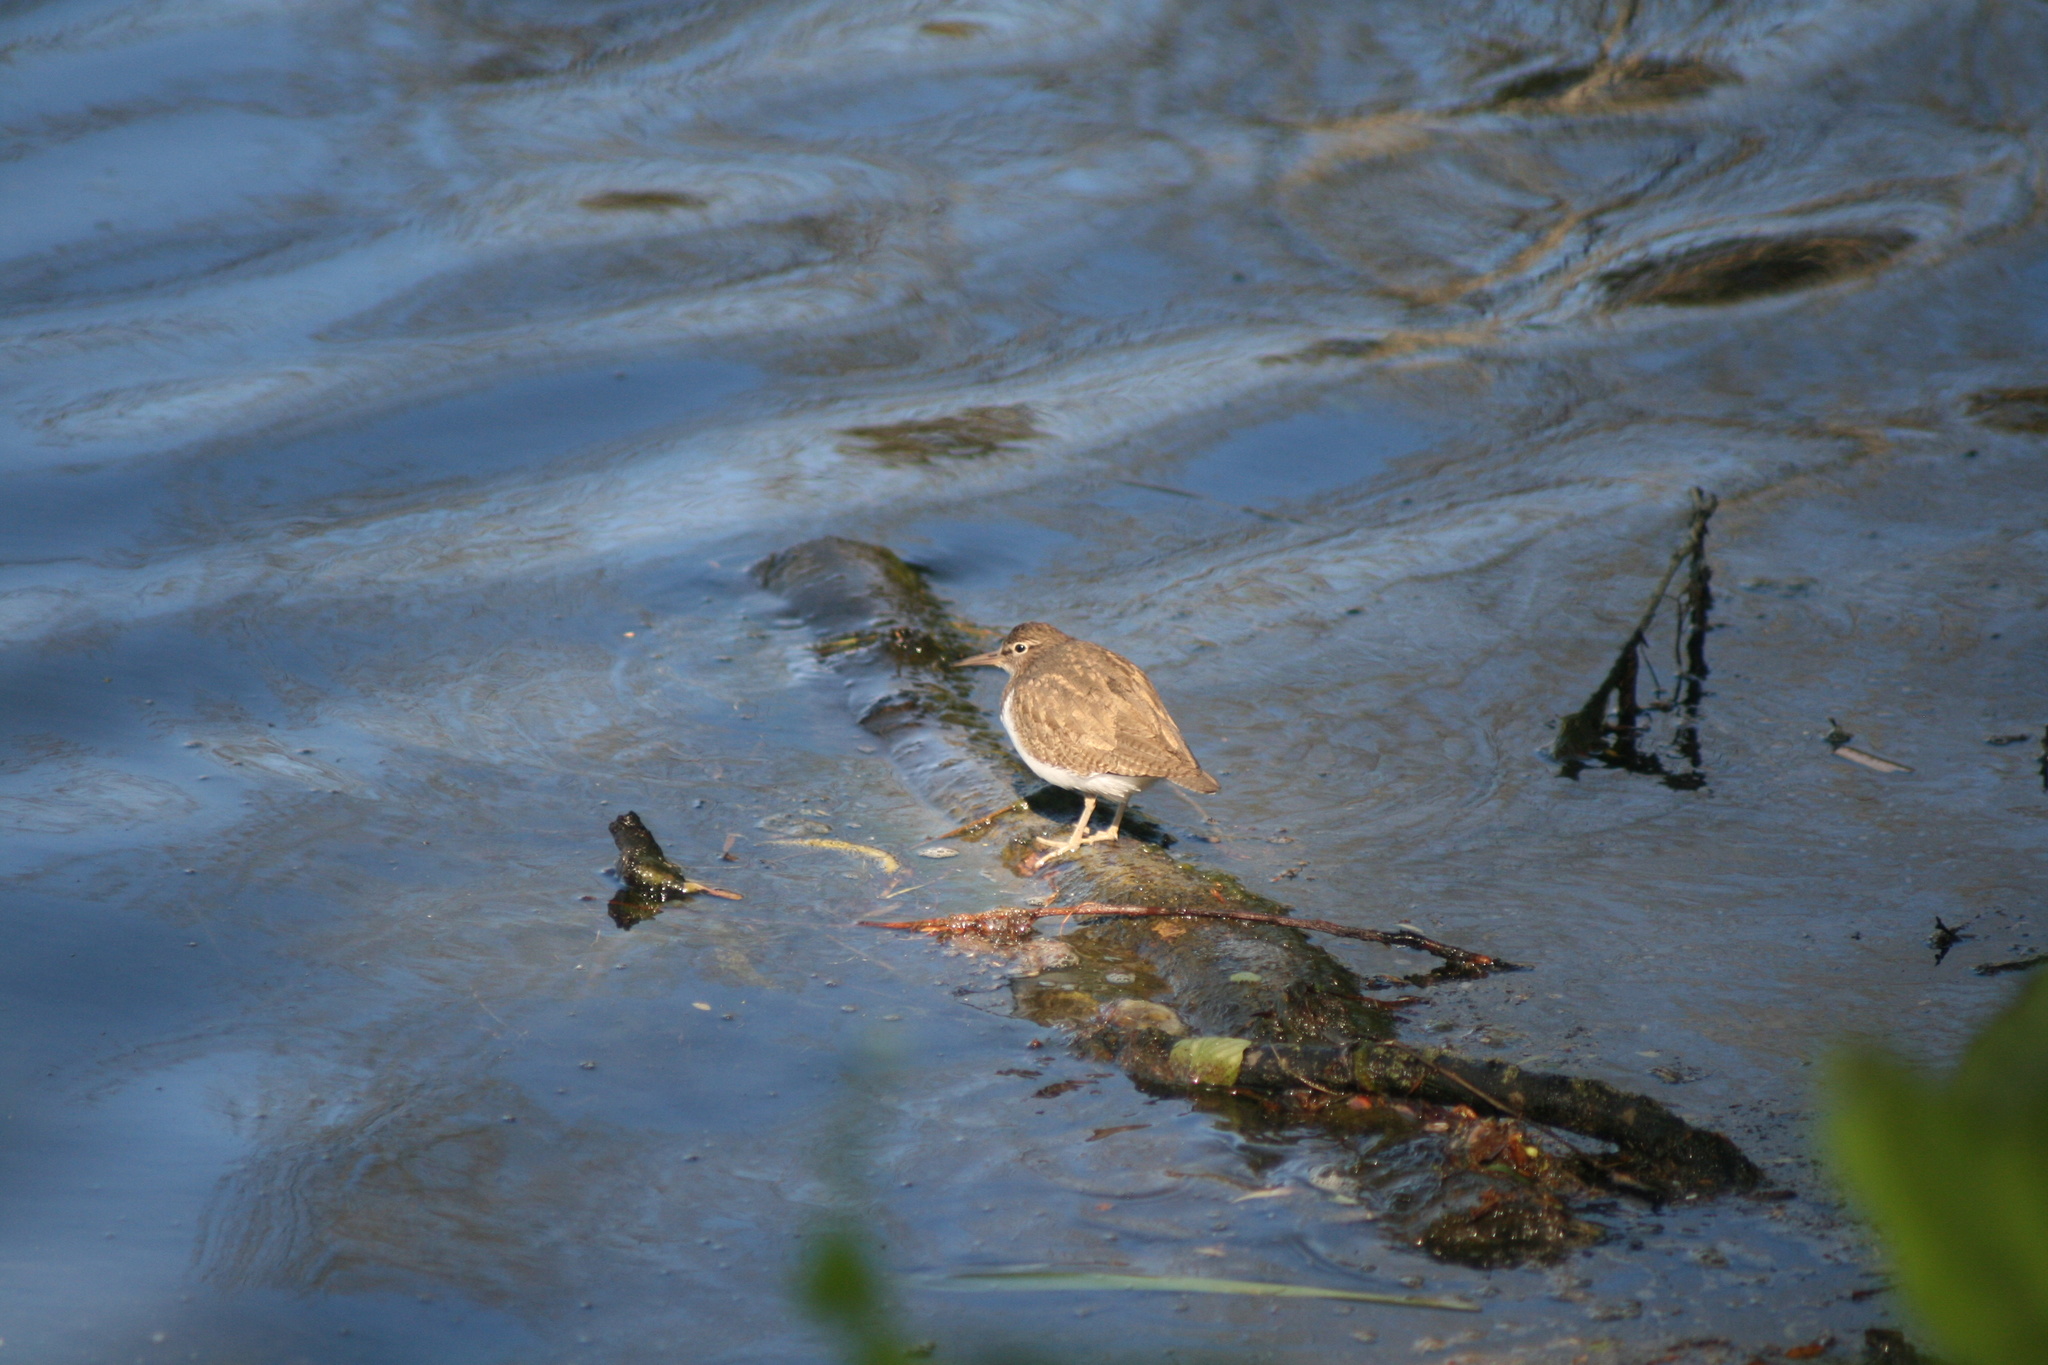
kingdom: Animalia
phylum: Chordata
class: Aves
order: Charadriiformes
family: Scolopacidae
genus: Actitis
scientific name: Actitis hypoleucos
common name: Common sandpiper
